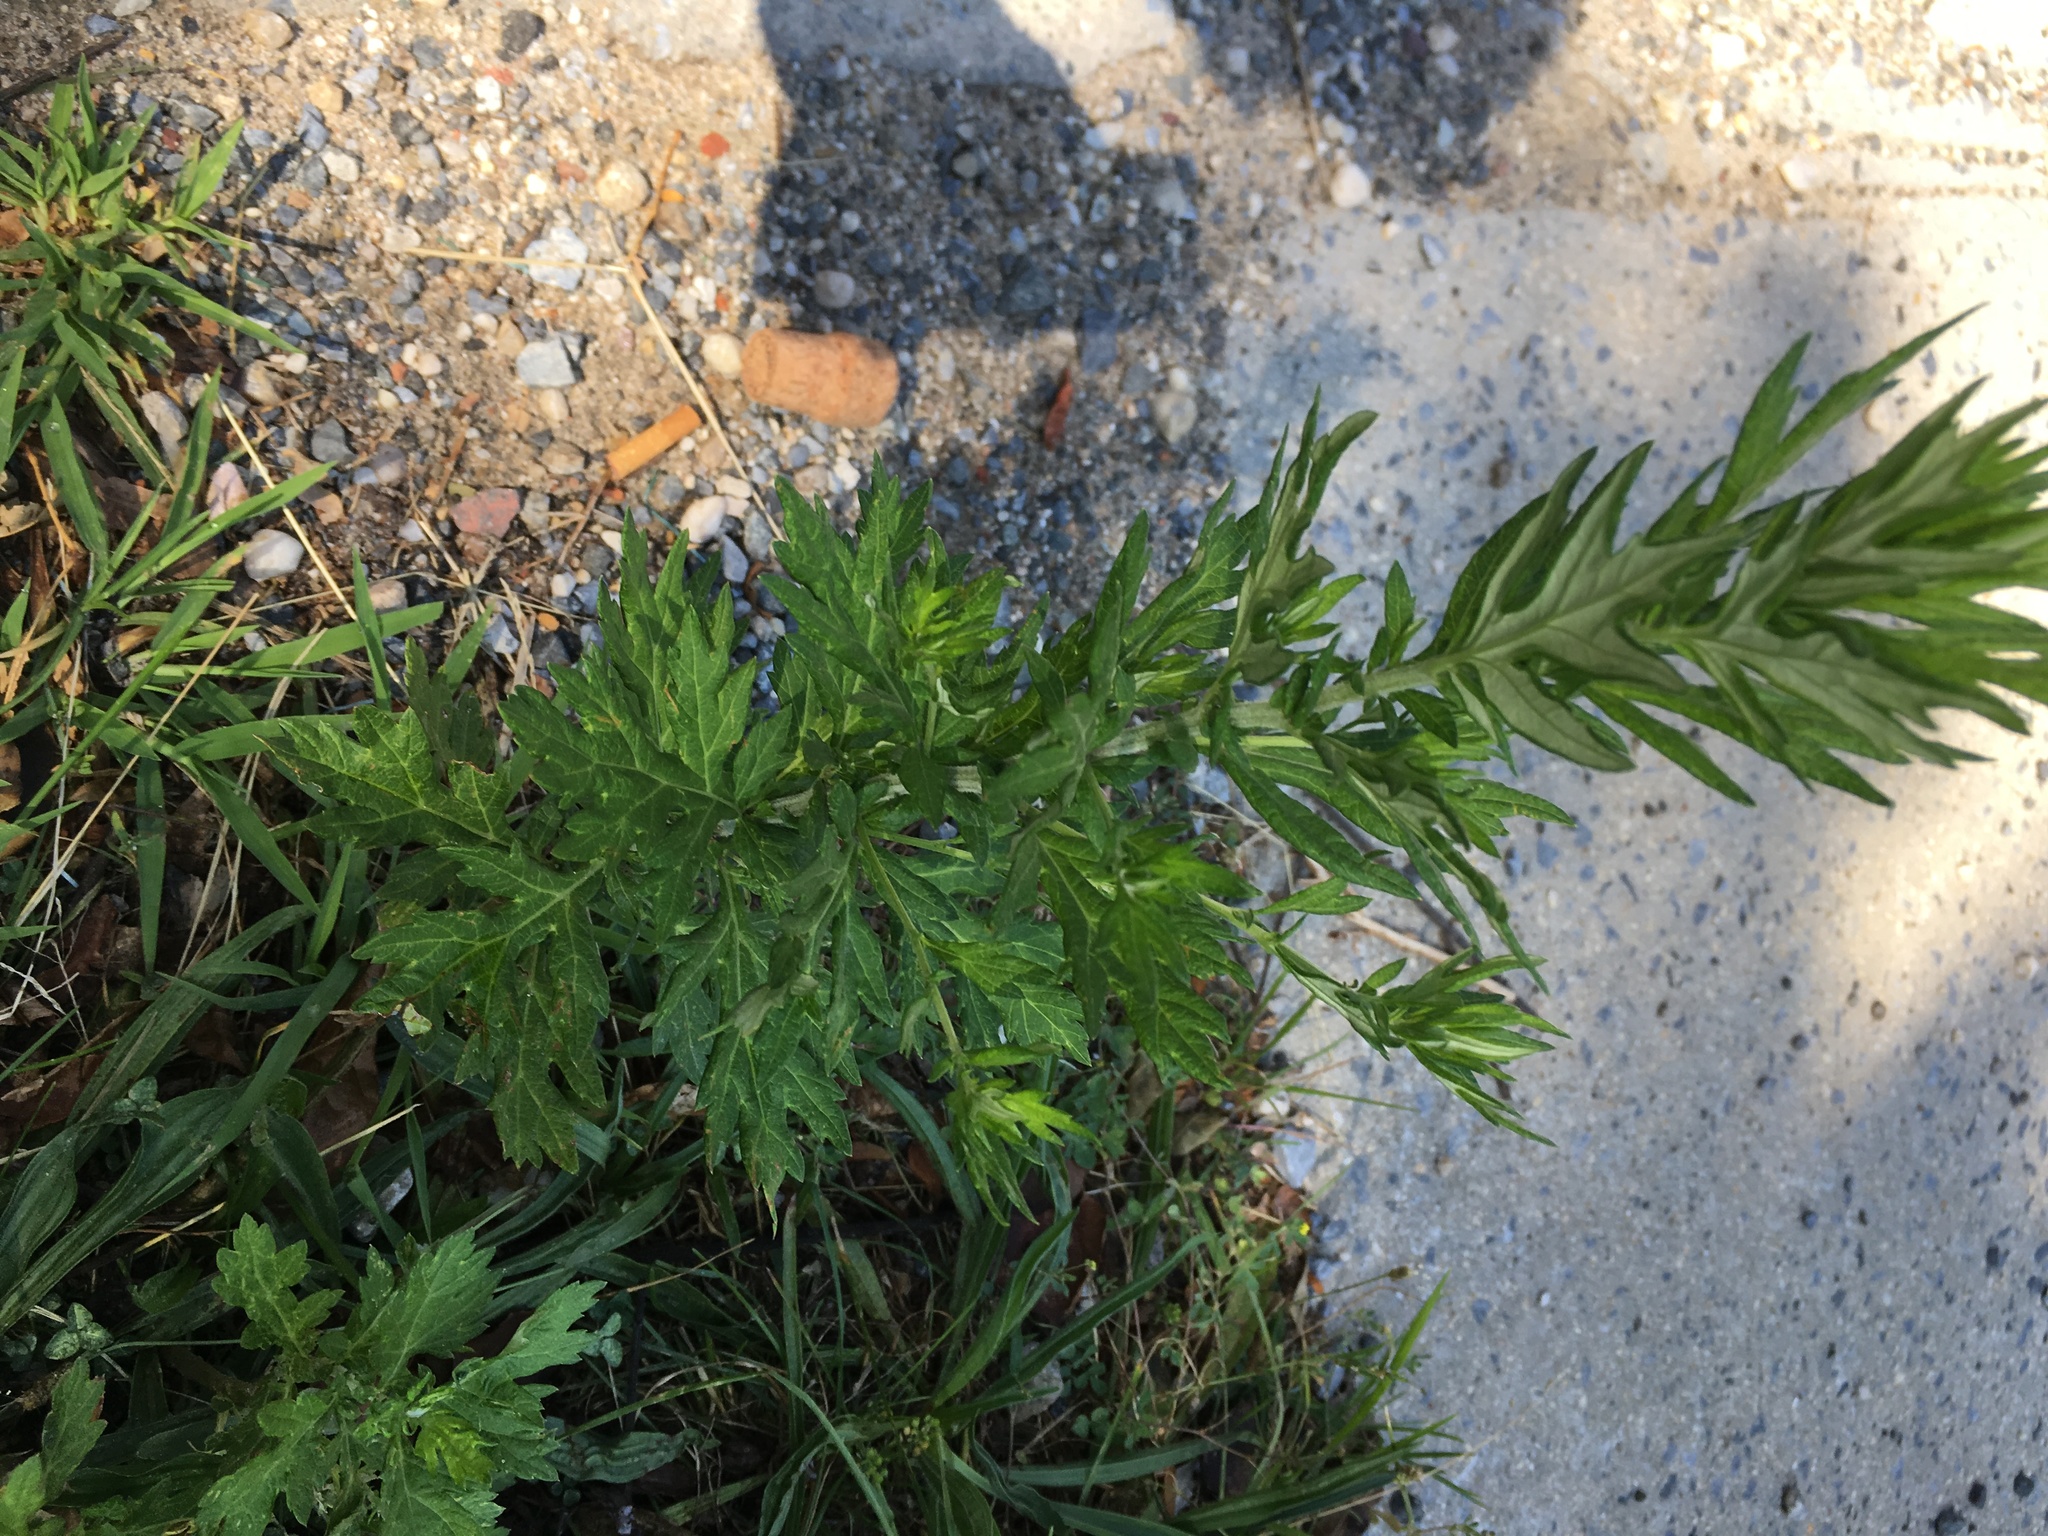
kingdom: Plantae
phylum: Tracheophyta
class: Magnoliopsida
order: Asterales
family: Asteraceae
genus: Artemisia
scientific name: Artemisia vulgaris
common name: Mugwort
